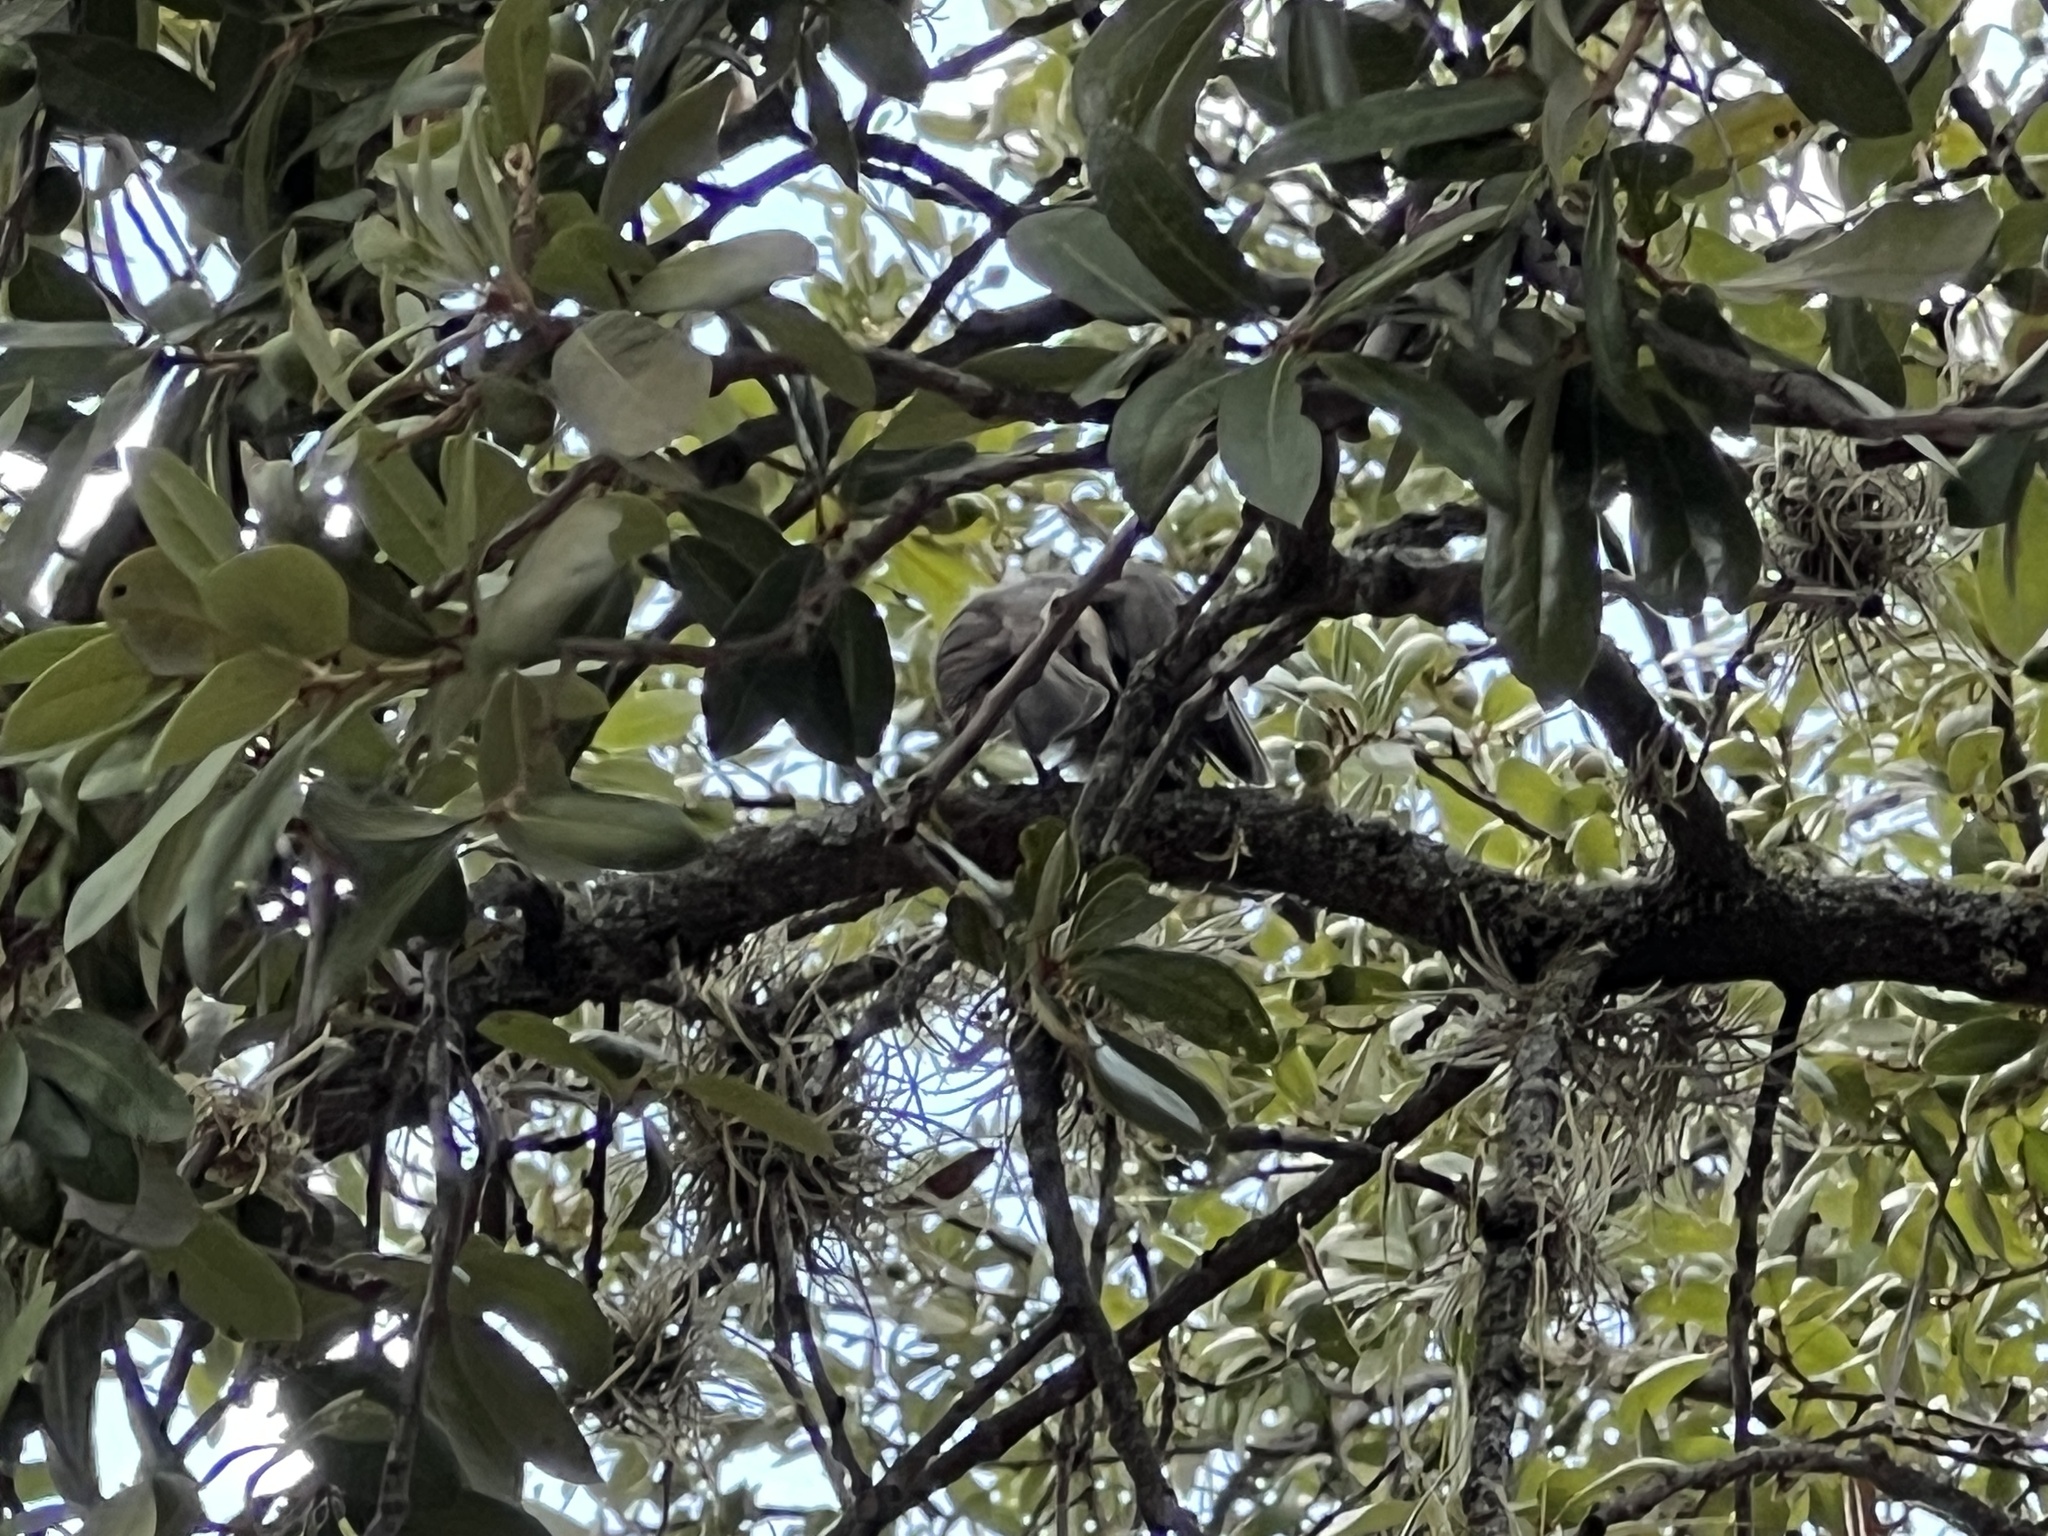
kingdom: Animalia
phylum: Chordata
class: Aves
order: Passeriformes
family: Paridae
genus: Baeolophus
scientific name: Baeolophus atricristatus
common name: Black-crested titmouse
